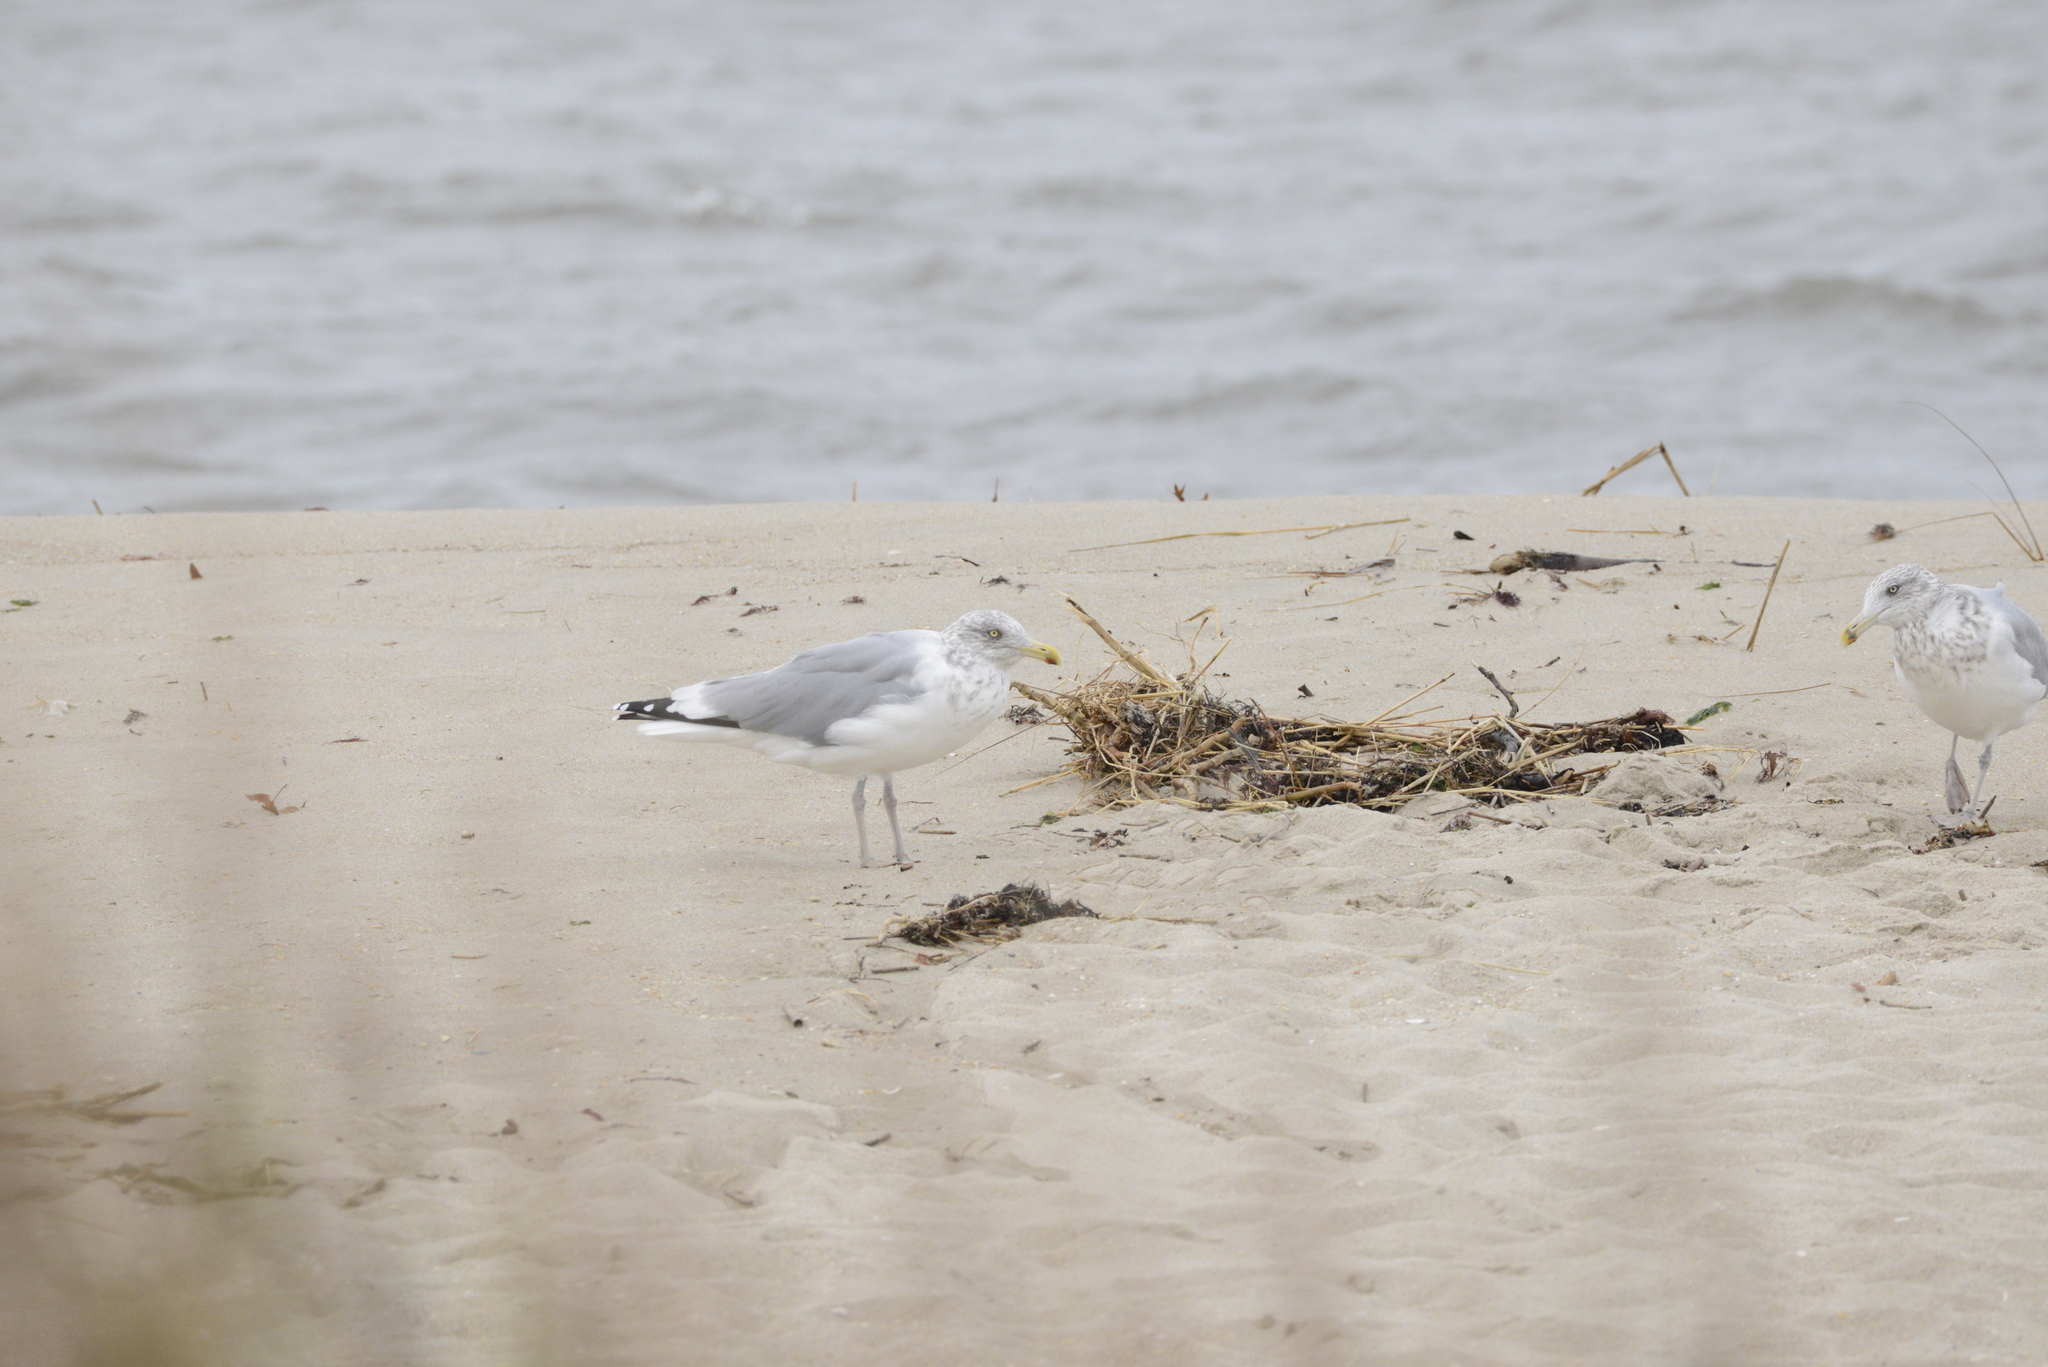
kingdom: Animalia
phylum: Chordata
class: Aves
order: Charadriiformes
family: Laridae
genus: Larus
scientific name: Larus argentatus
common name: Herring gull
